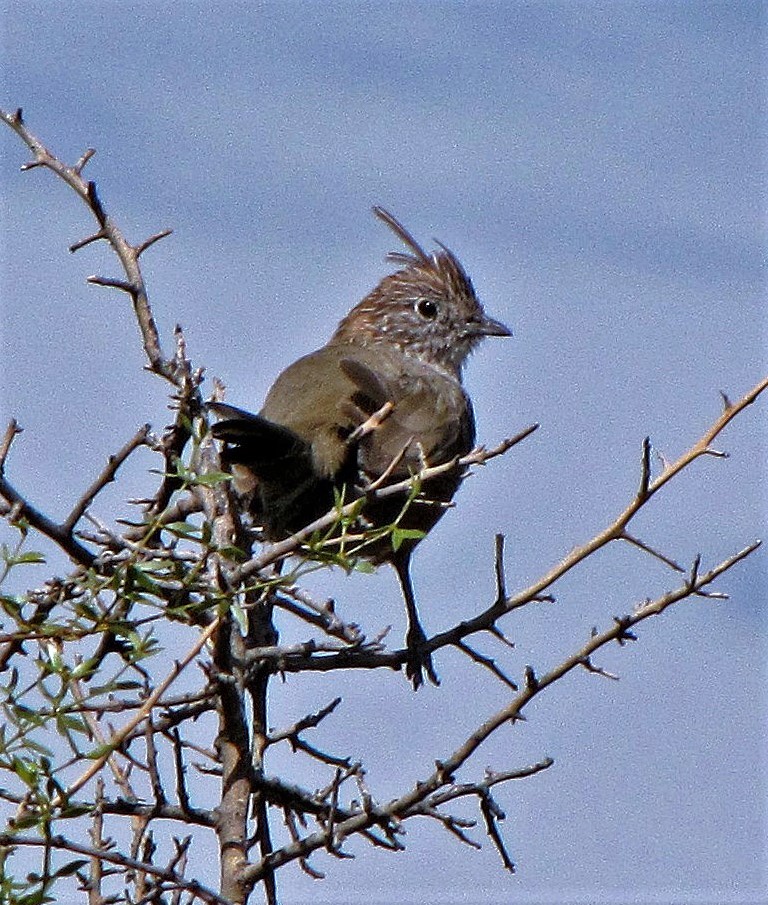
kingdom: Animalia
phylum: Chordata
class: Aves
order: Passeriformes
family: Rhinocryptidae
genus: Rhinocrypta
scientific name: Rhinocrypta lanceolata
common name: Crested gallito
